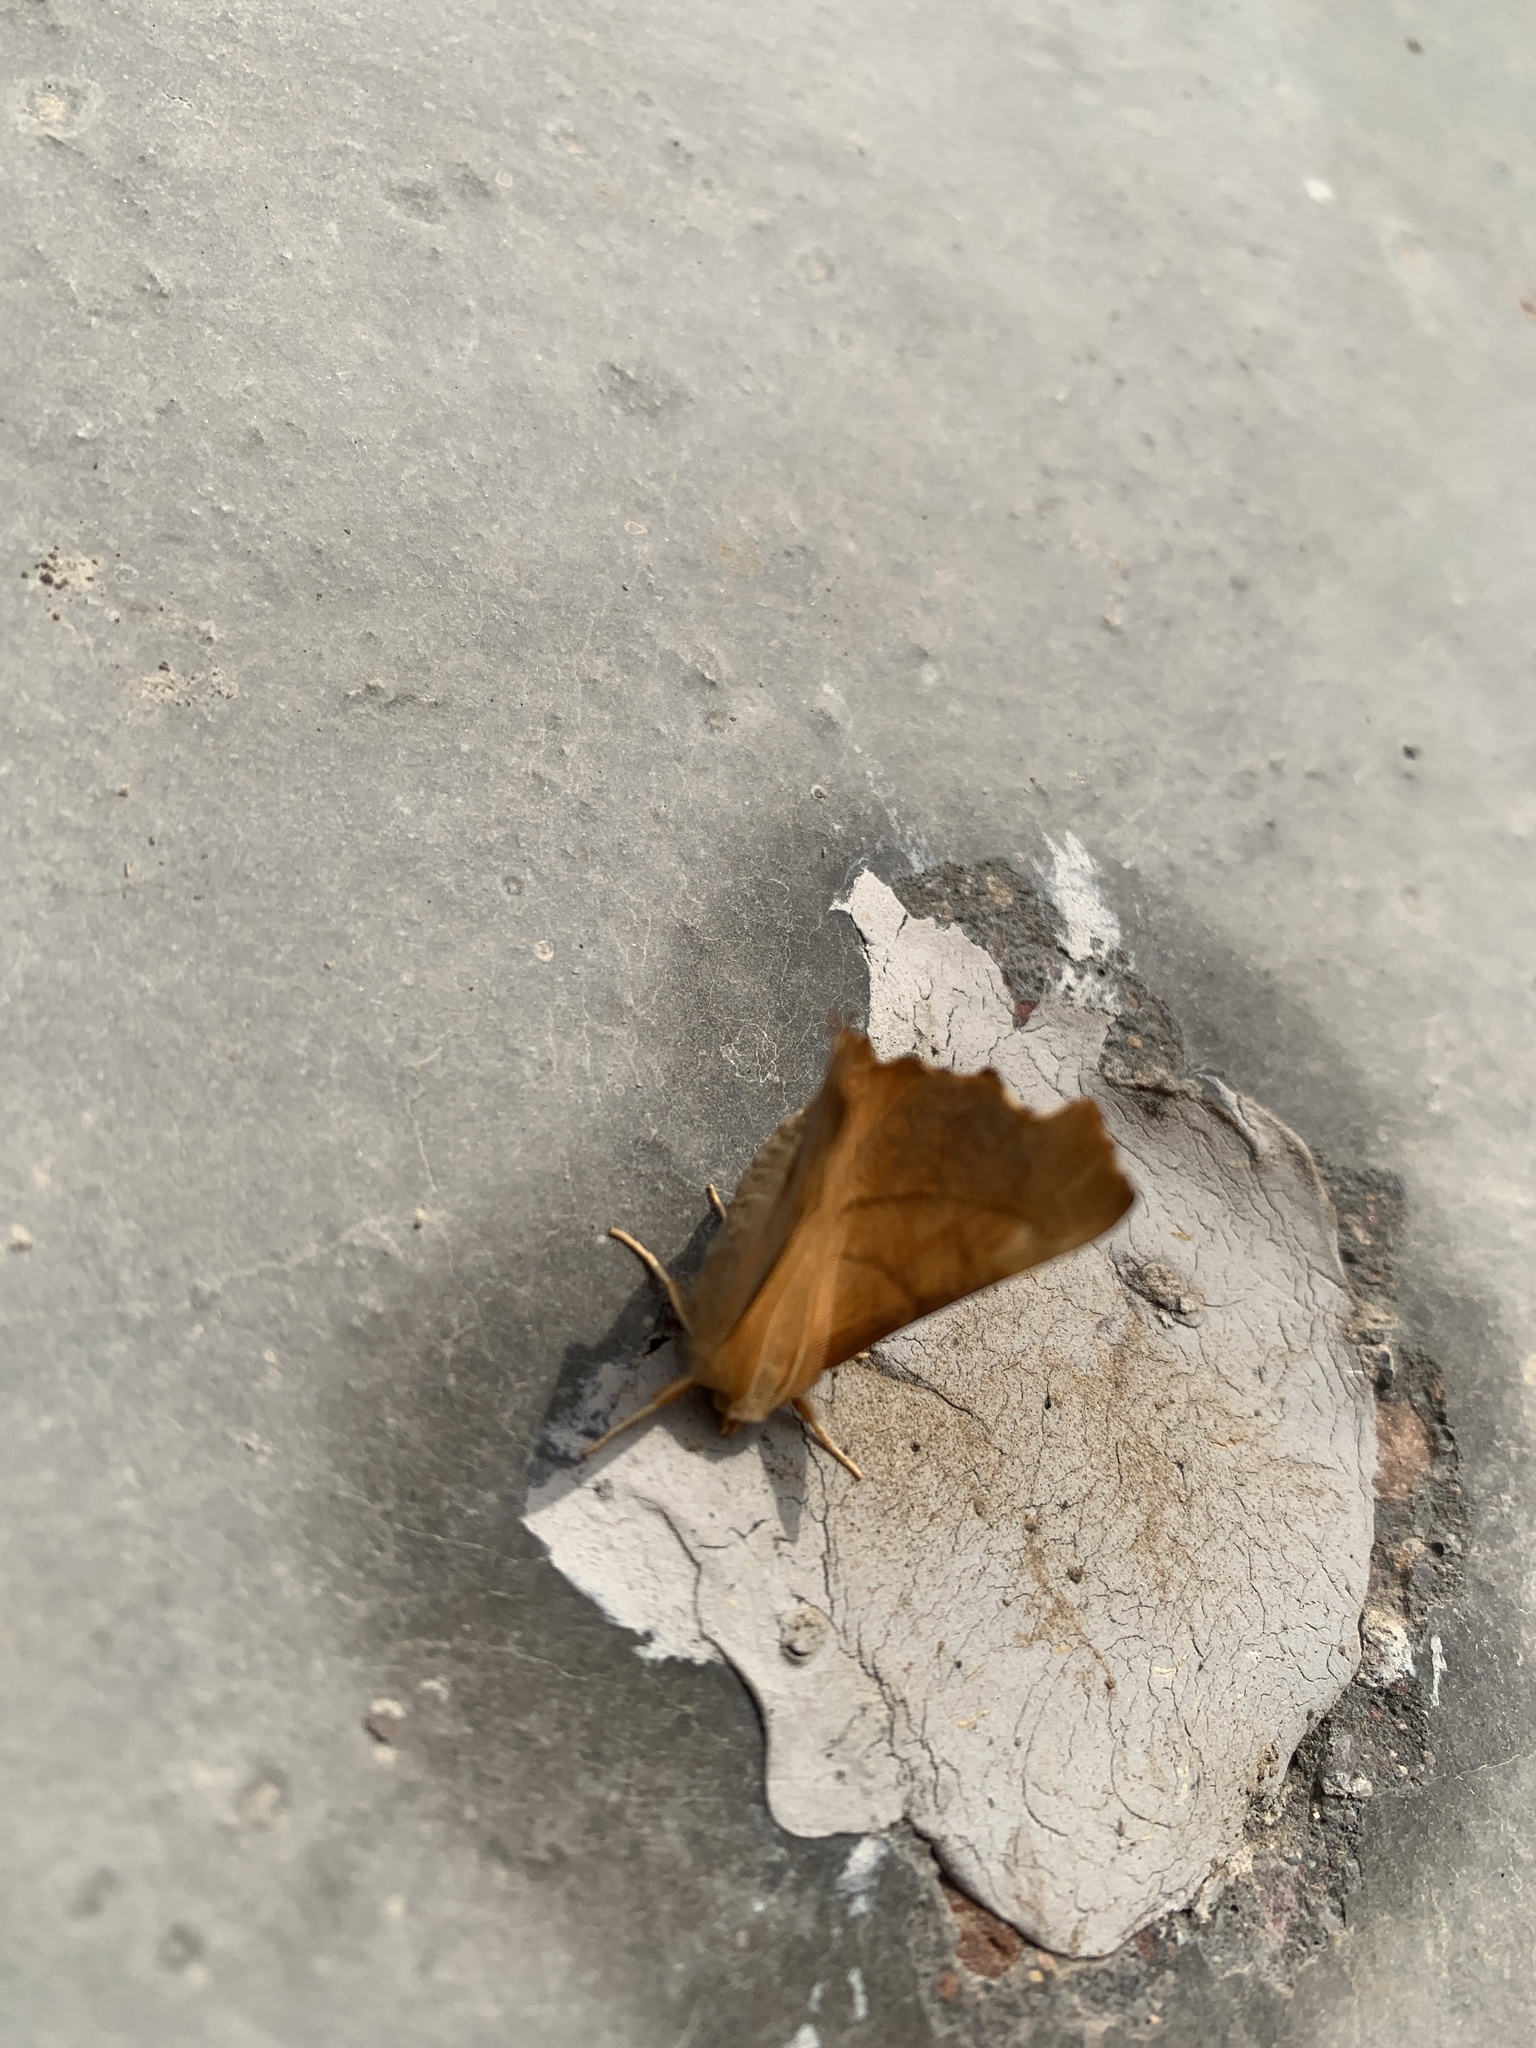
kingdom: Animalia
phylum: Arthropoda
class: Insecta
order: Lepidoptera
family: Geometridae
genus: Ennomos
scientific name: Ennomos fuscantaria
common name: Dusky thorn
